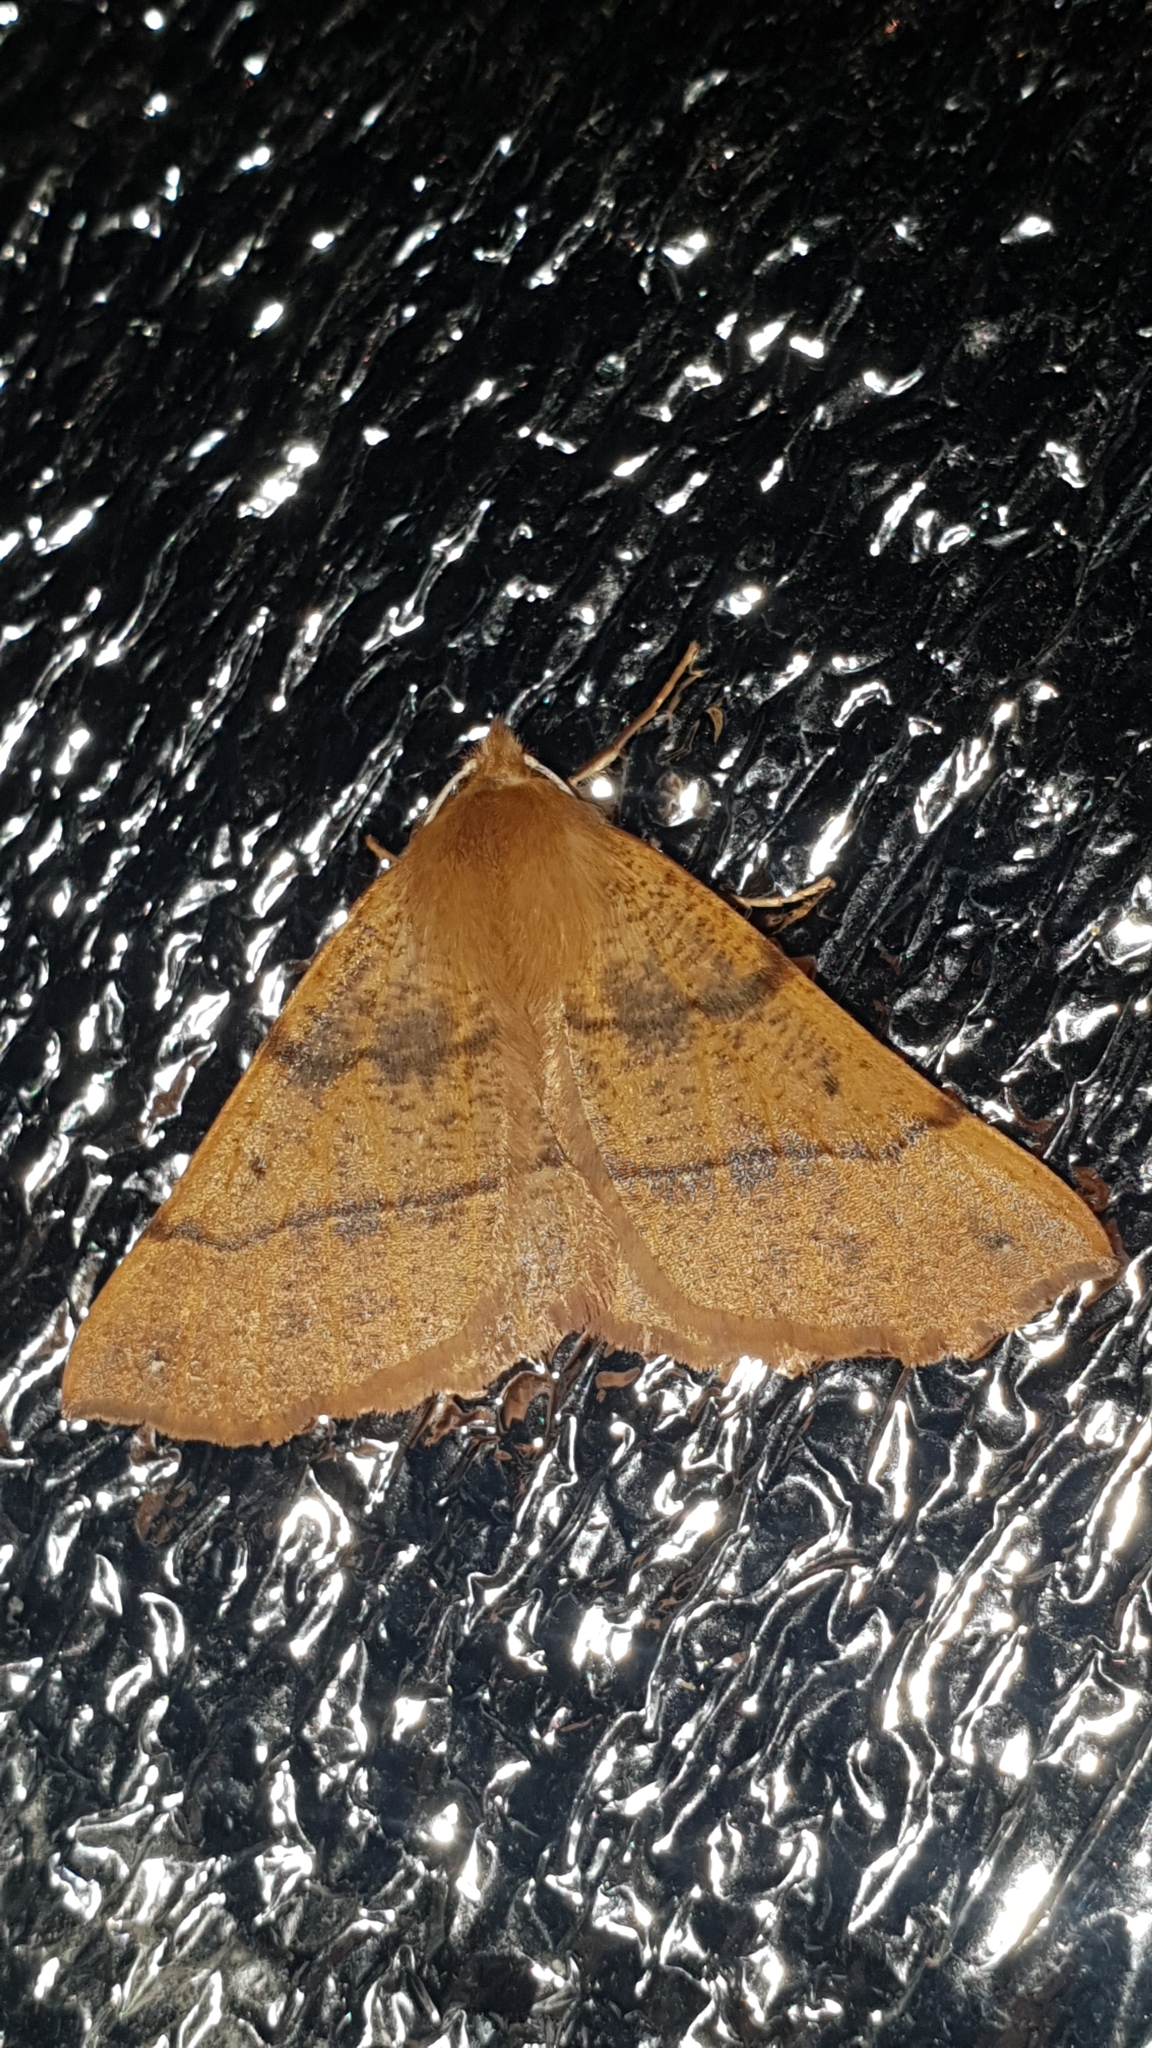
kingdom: Animalia
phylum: Arthropoda
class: Insecta
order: Lepidoptera
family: Geometridae
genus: Colotois
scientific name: Colotois pennaria
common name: Feathered thorn
